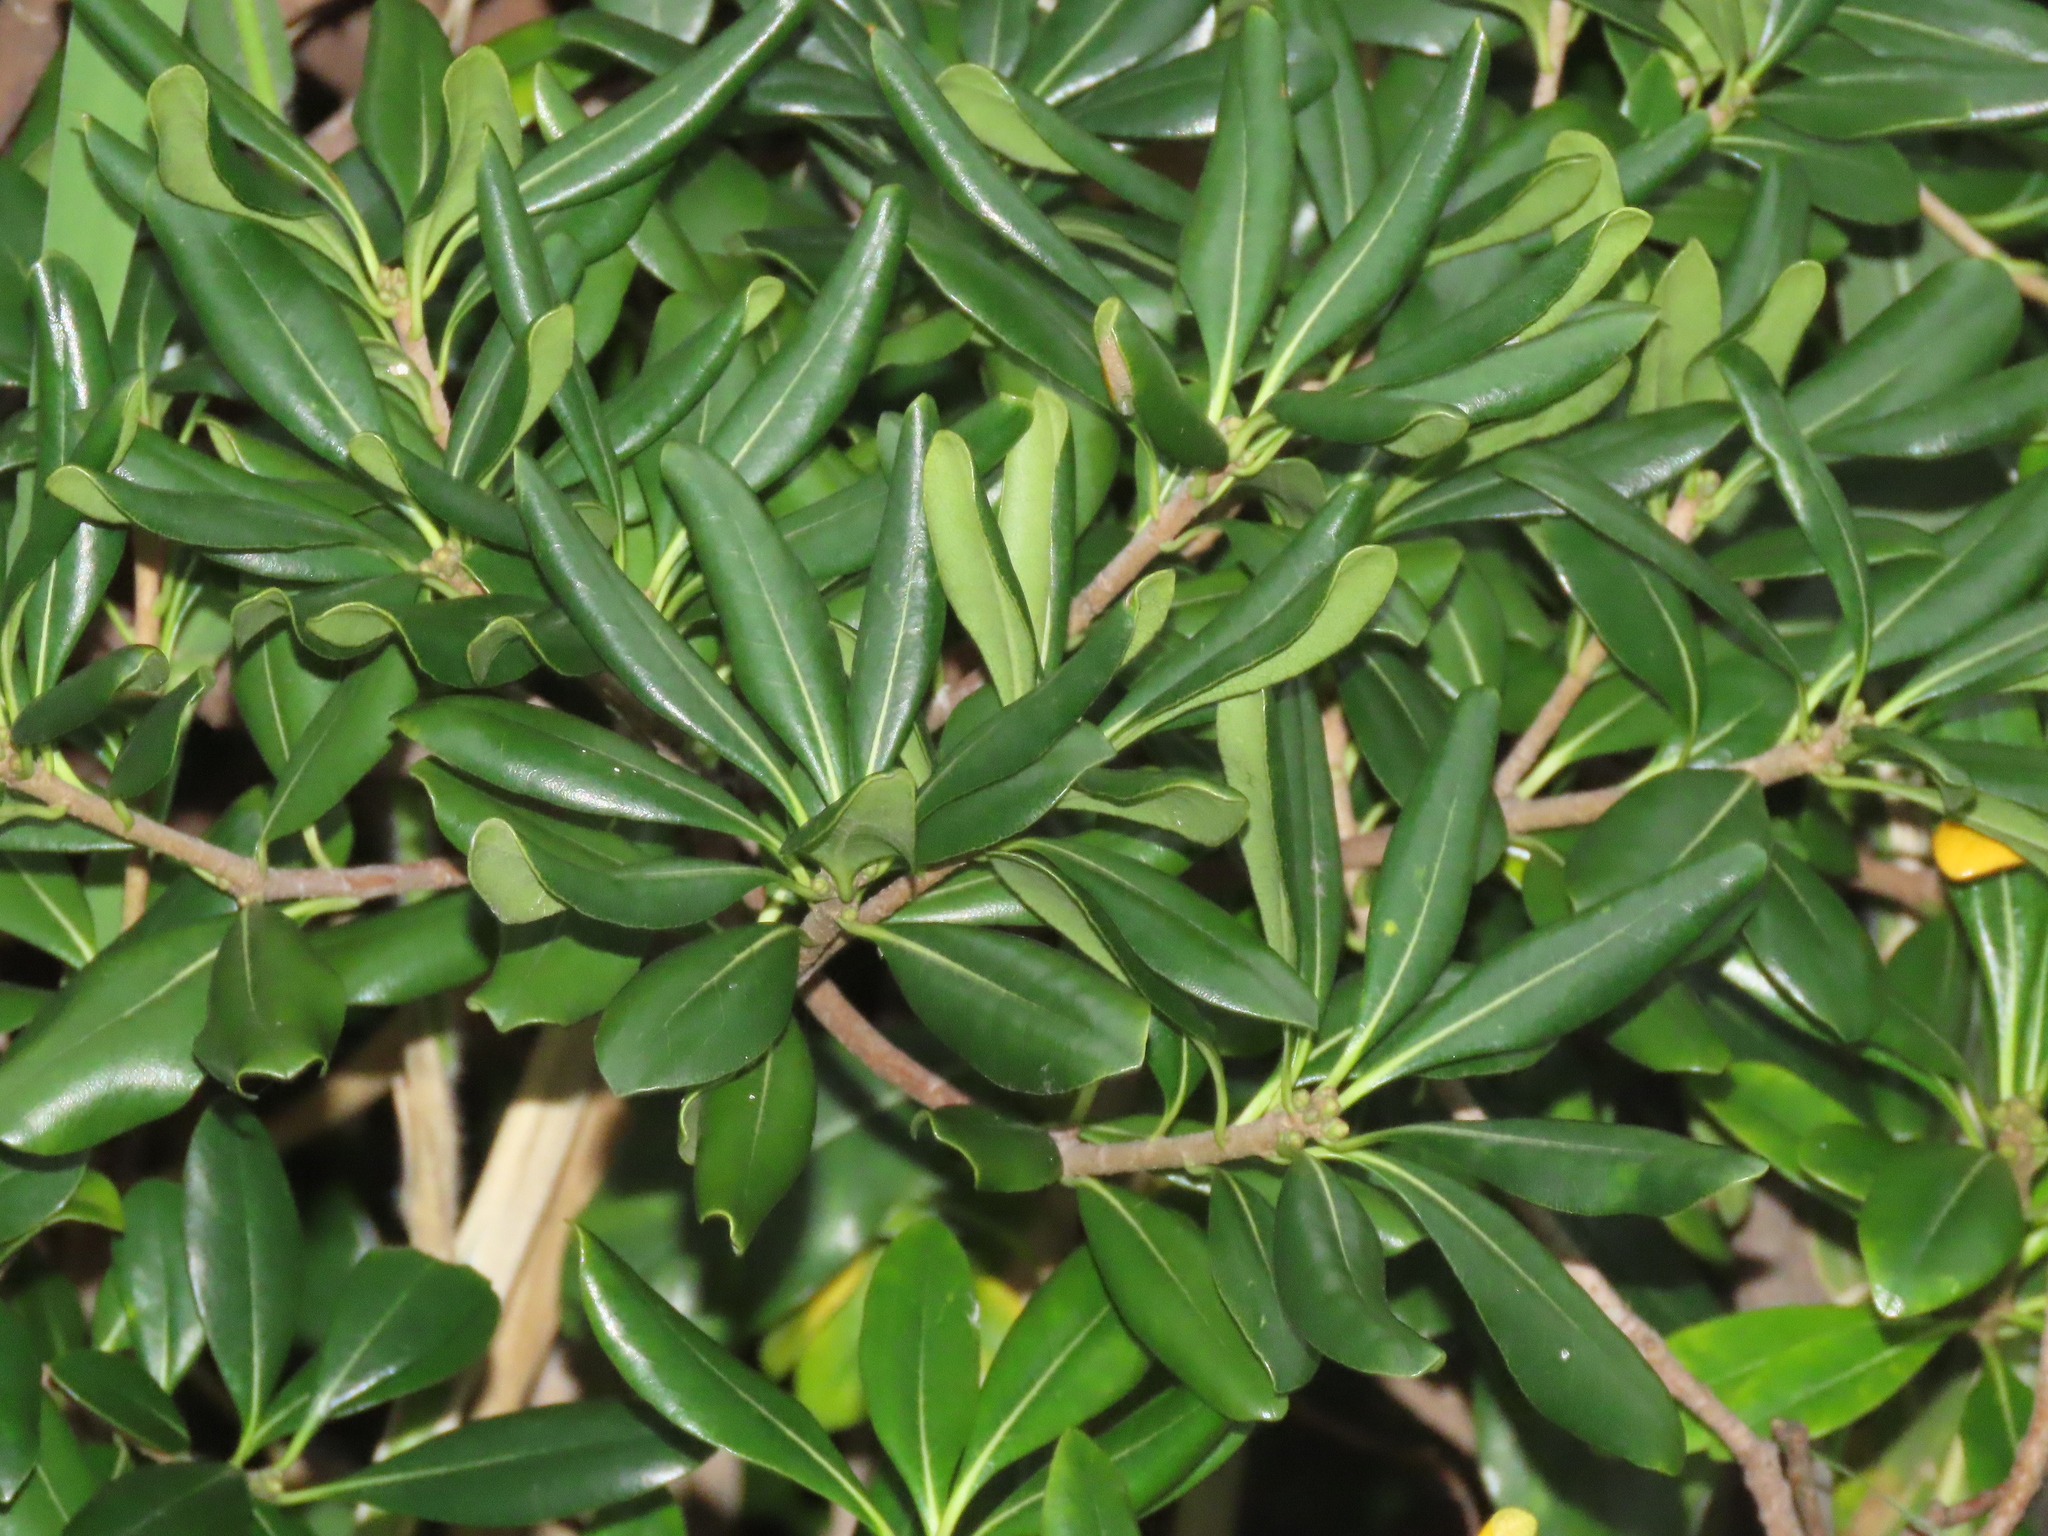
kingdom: Plantae
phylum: Tracheophyta
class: Magnoliopsida
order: Apiales
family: Pittosporaceae
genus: Pittosporum
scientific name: Pittosporum tobira
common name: Japanese cheesewood
